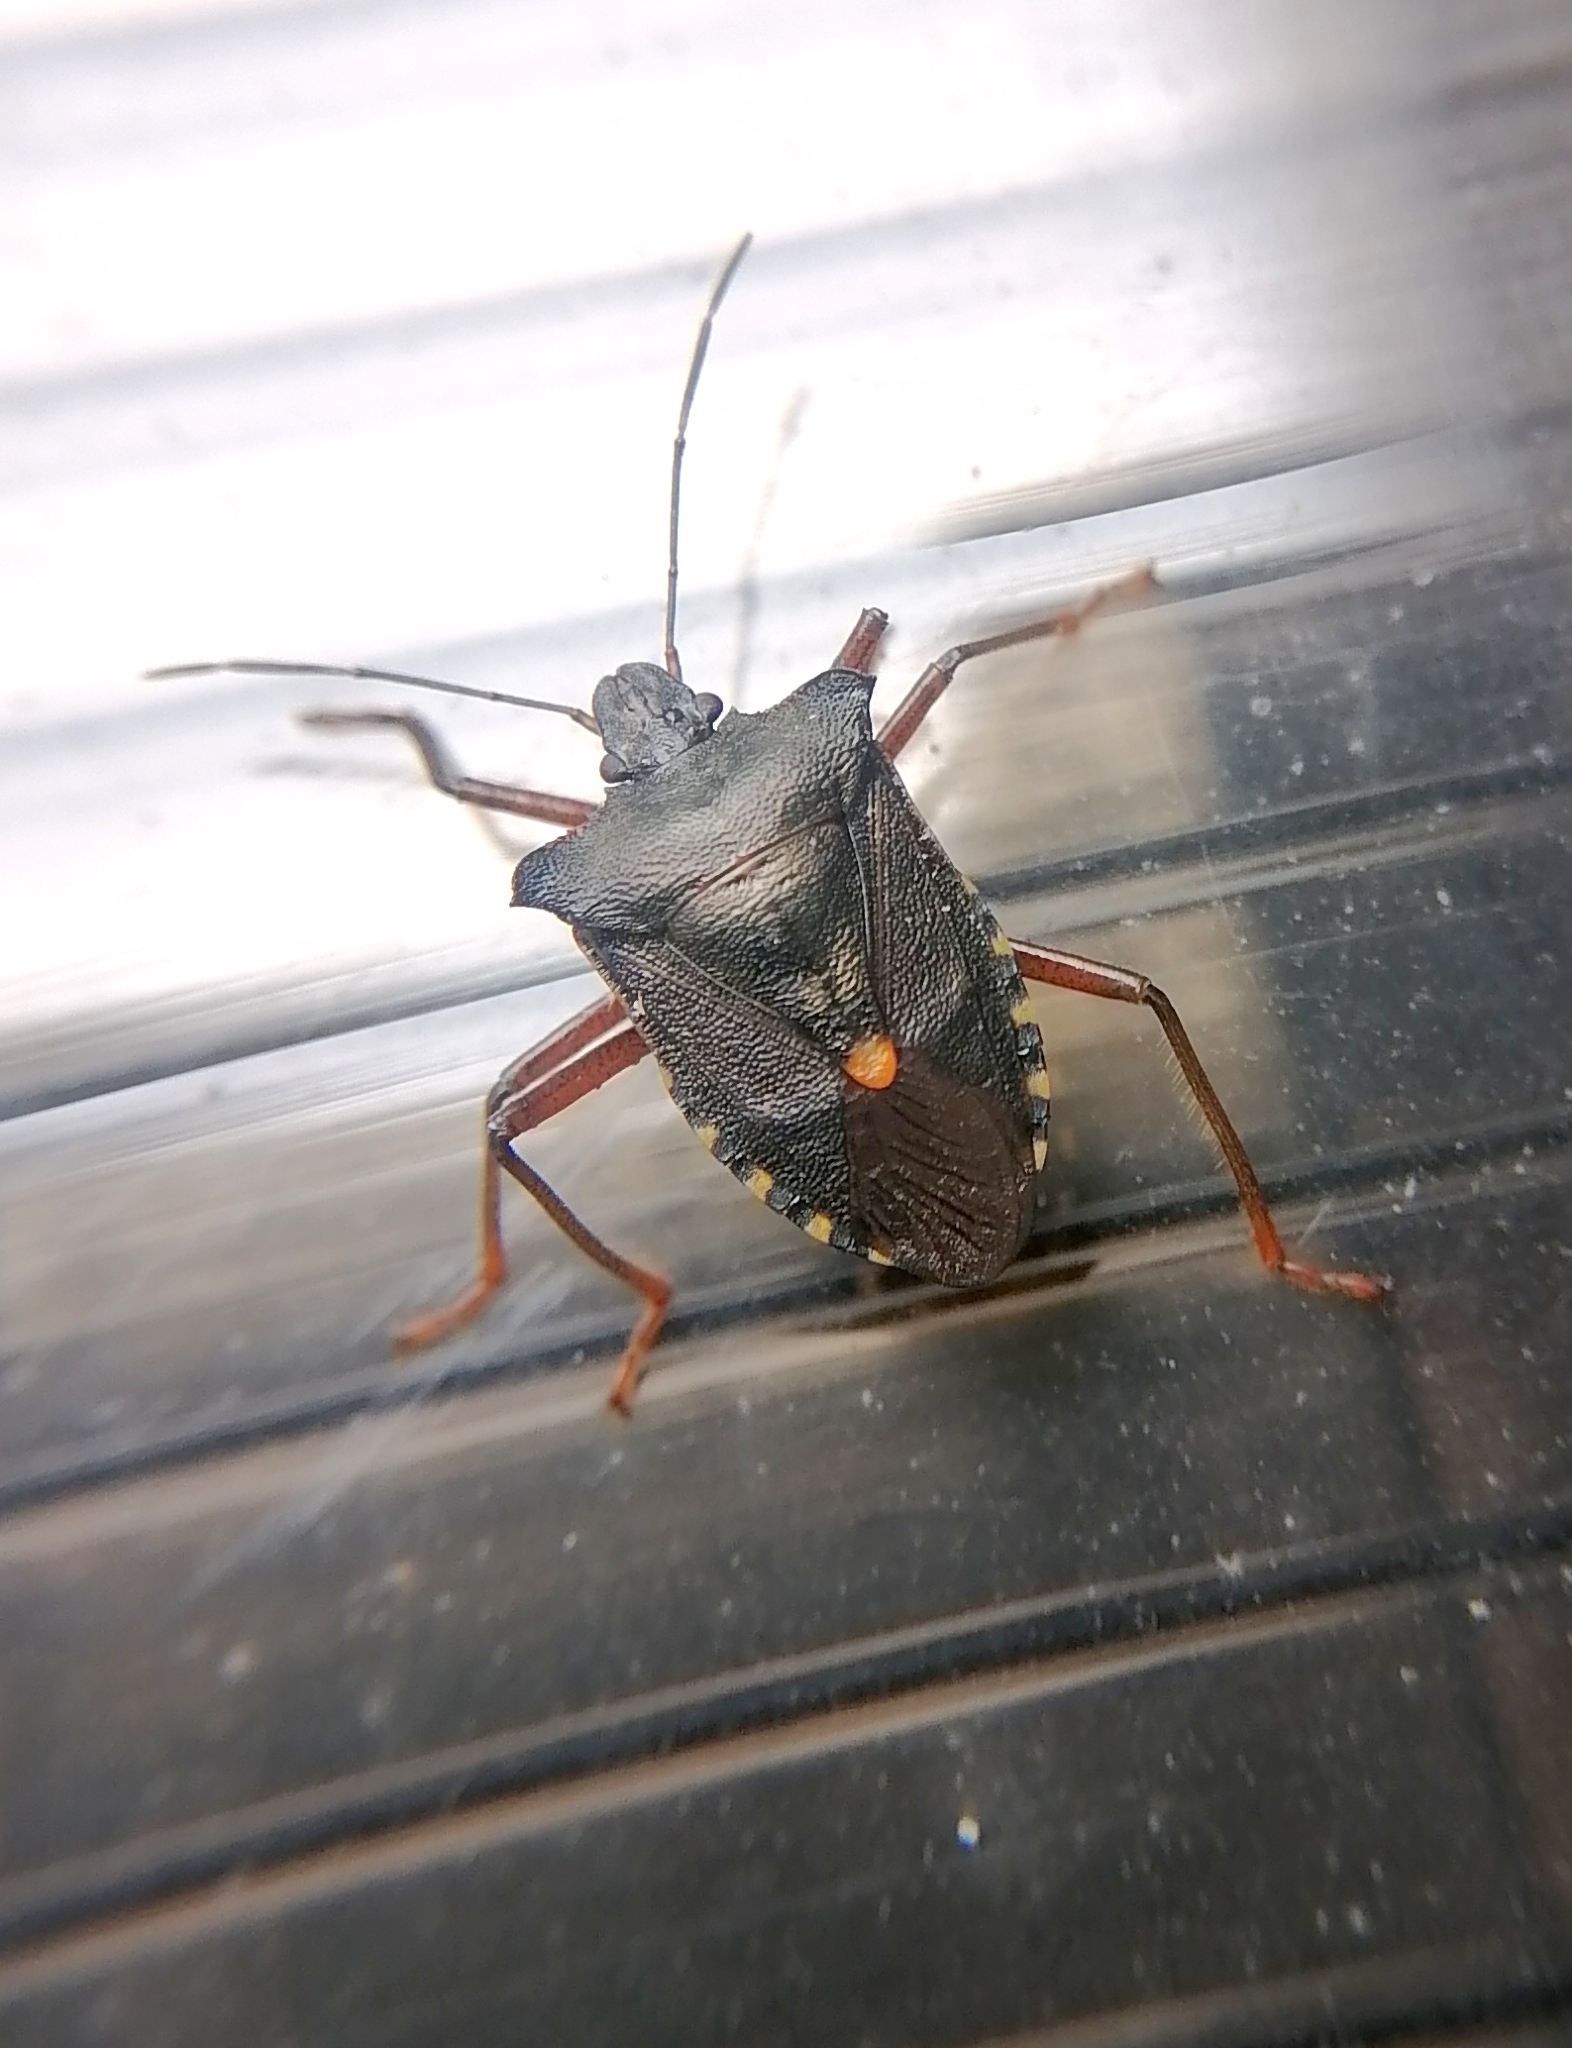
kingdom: Animalia
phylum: Arthropoda
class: Insecta
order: Hemiptera
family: Pentatomidae
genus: Pentatoma
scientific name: Pentatoma rufipes
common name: Forest bug
